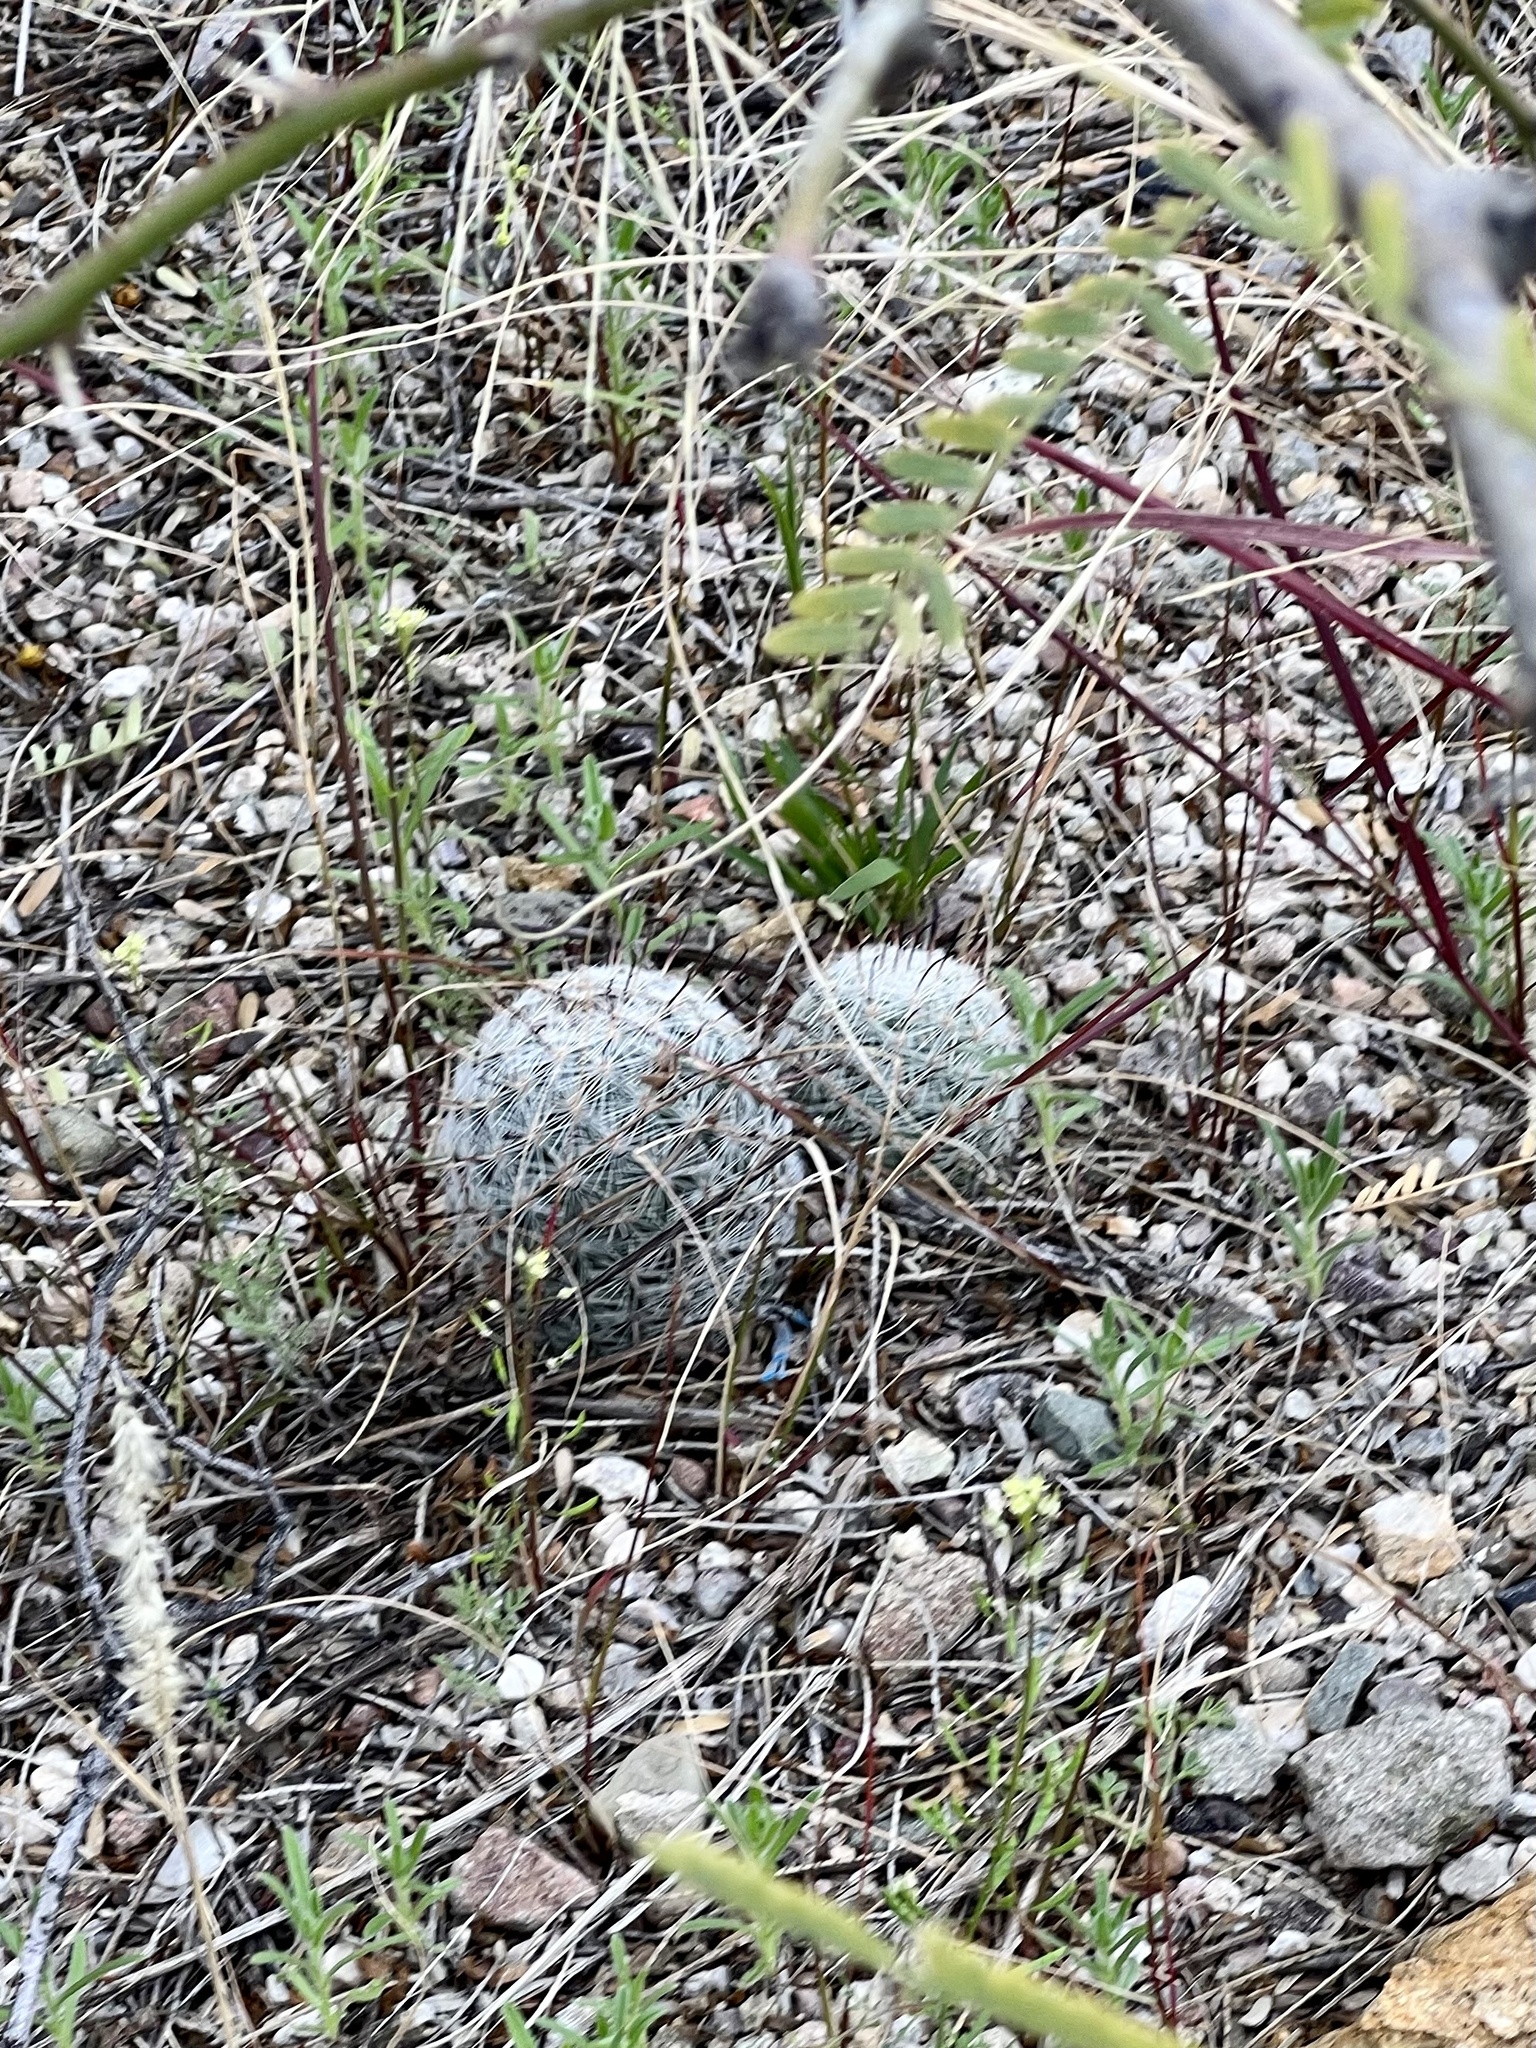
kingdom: Plantae
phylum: Tracheophyta
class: Magnoliopsida
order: Caryophyllales
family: Cactaceae
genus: Cochemiea
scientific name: Cochemiea grahamii
